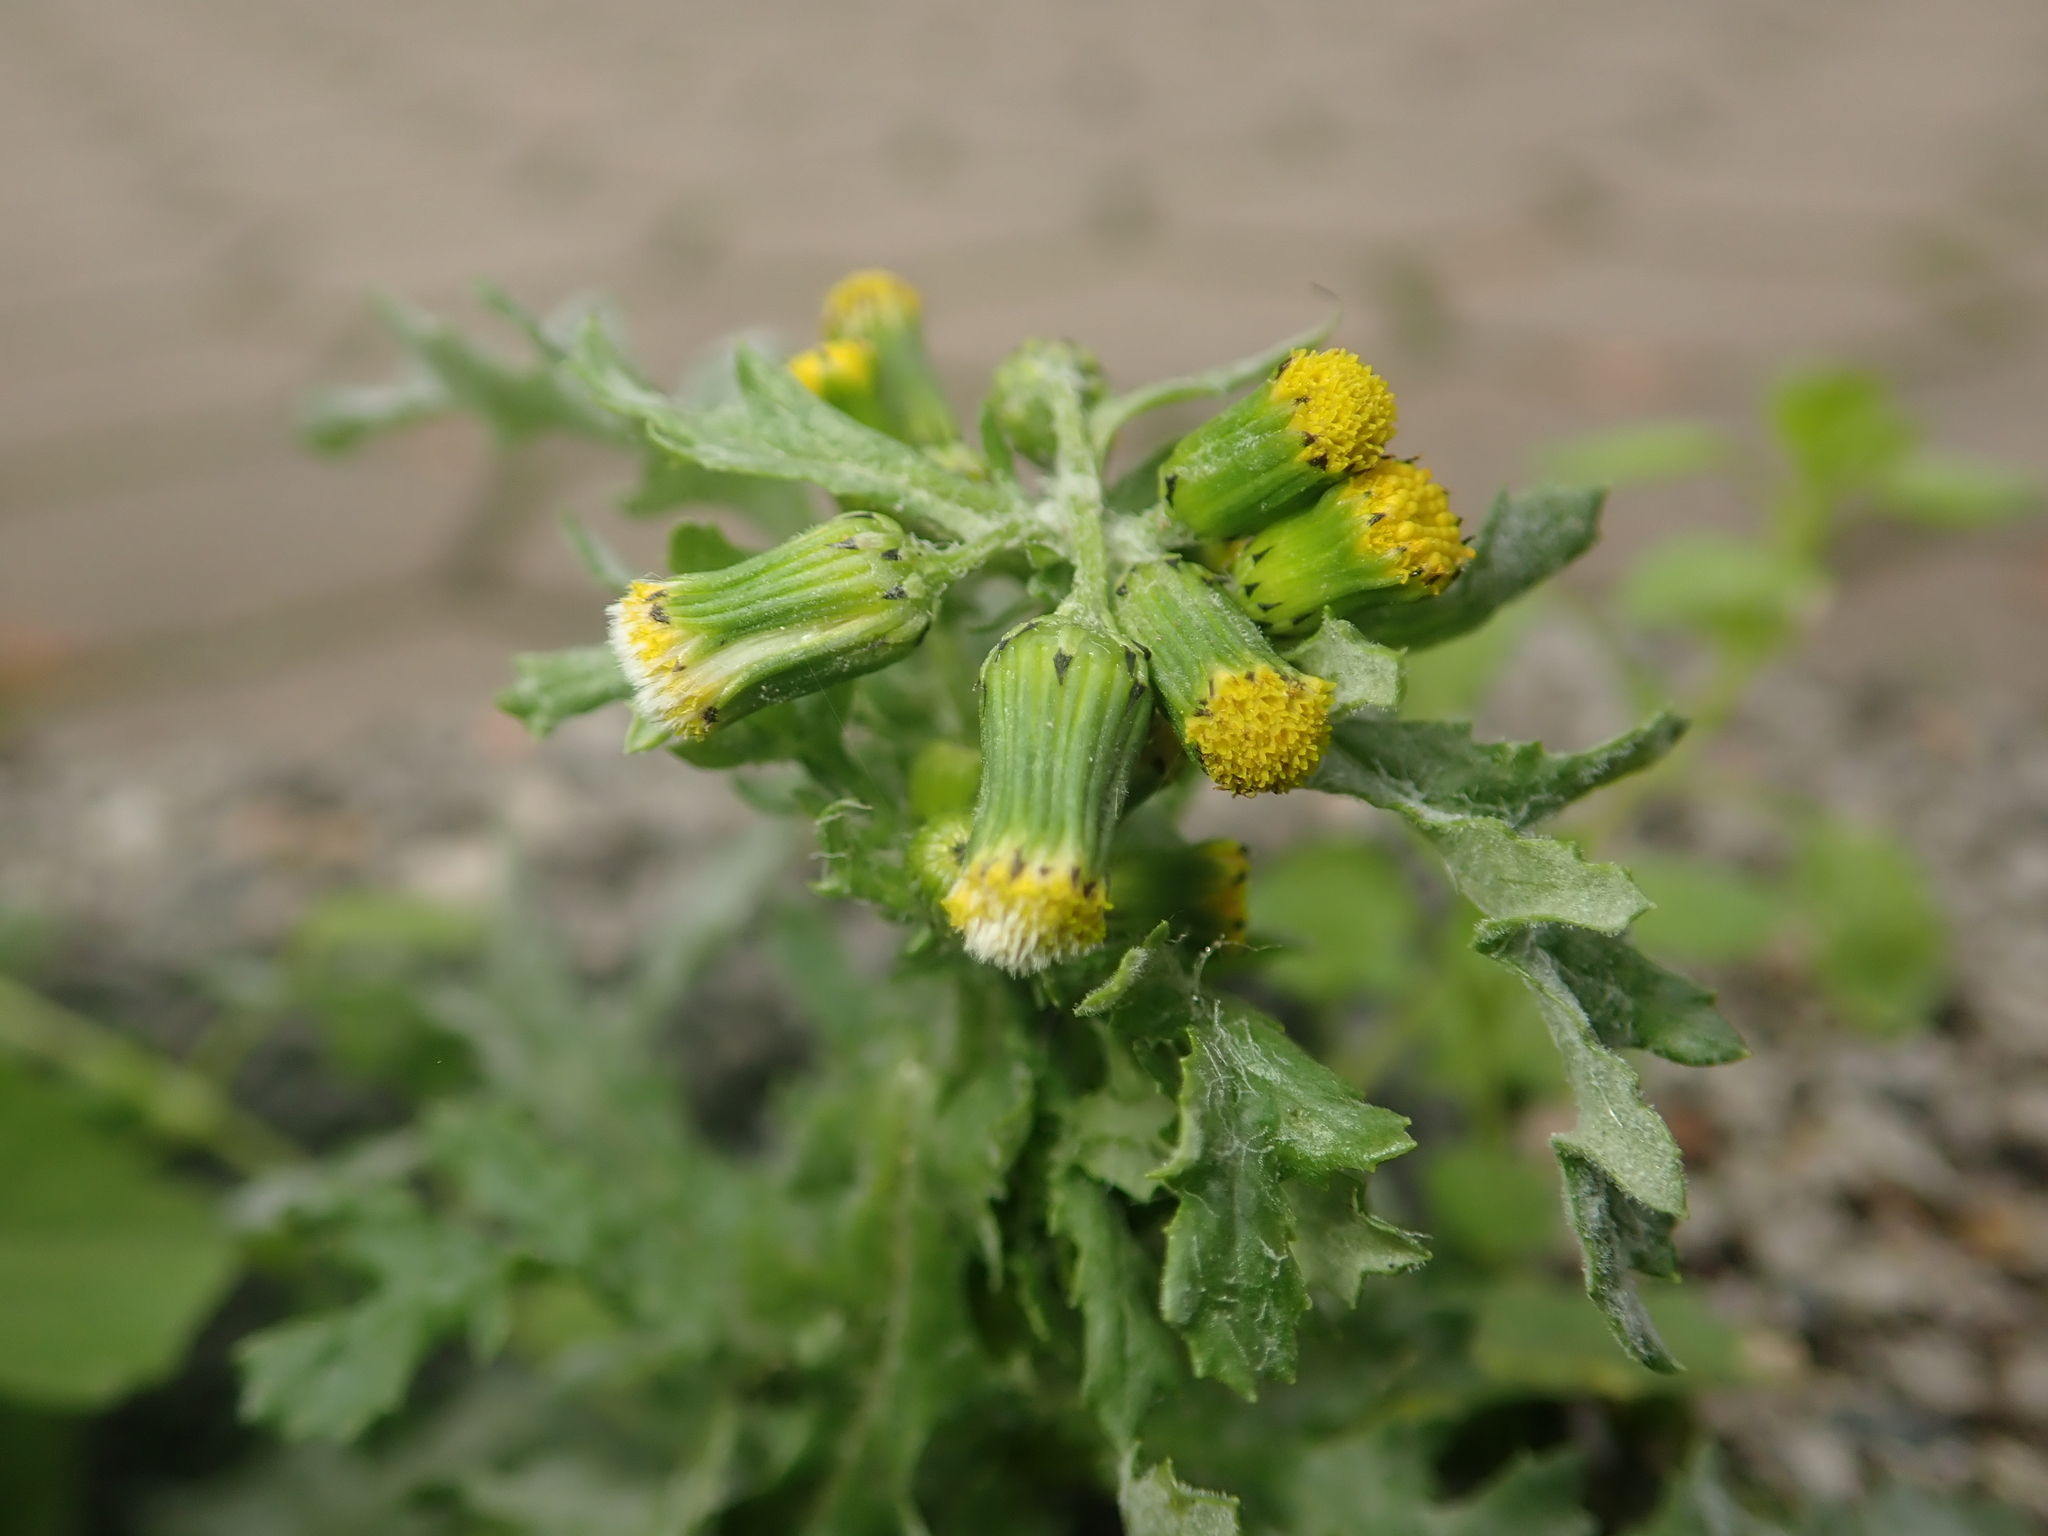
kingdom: Plantae
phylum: Tracheophyta
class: Magnoliopsida
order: Asterales
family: Asteraceae
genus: Senecio
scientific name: Senecio vulgaris
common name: Old-man-in-the-spring
